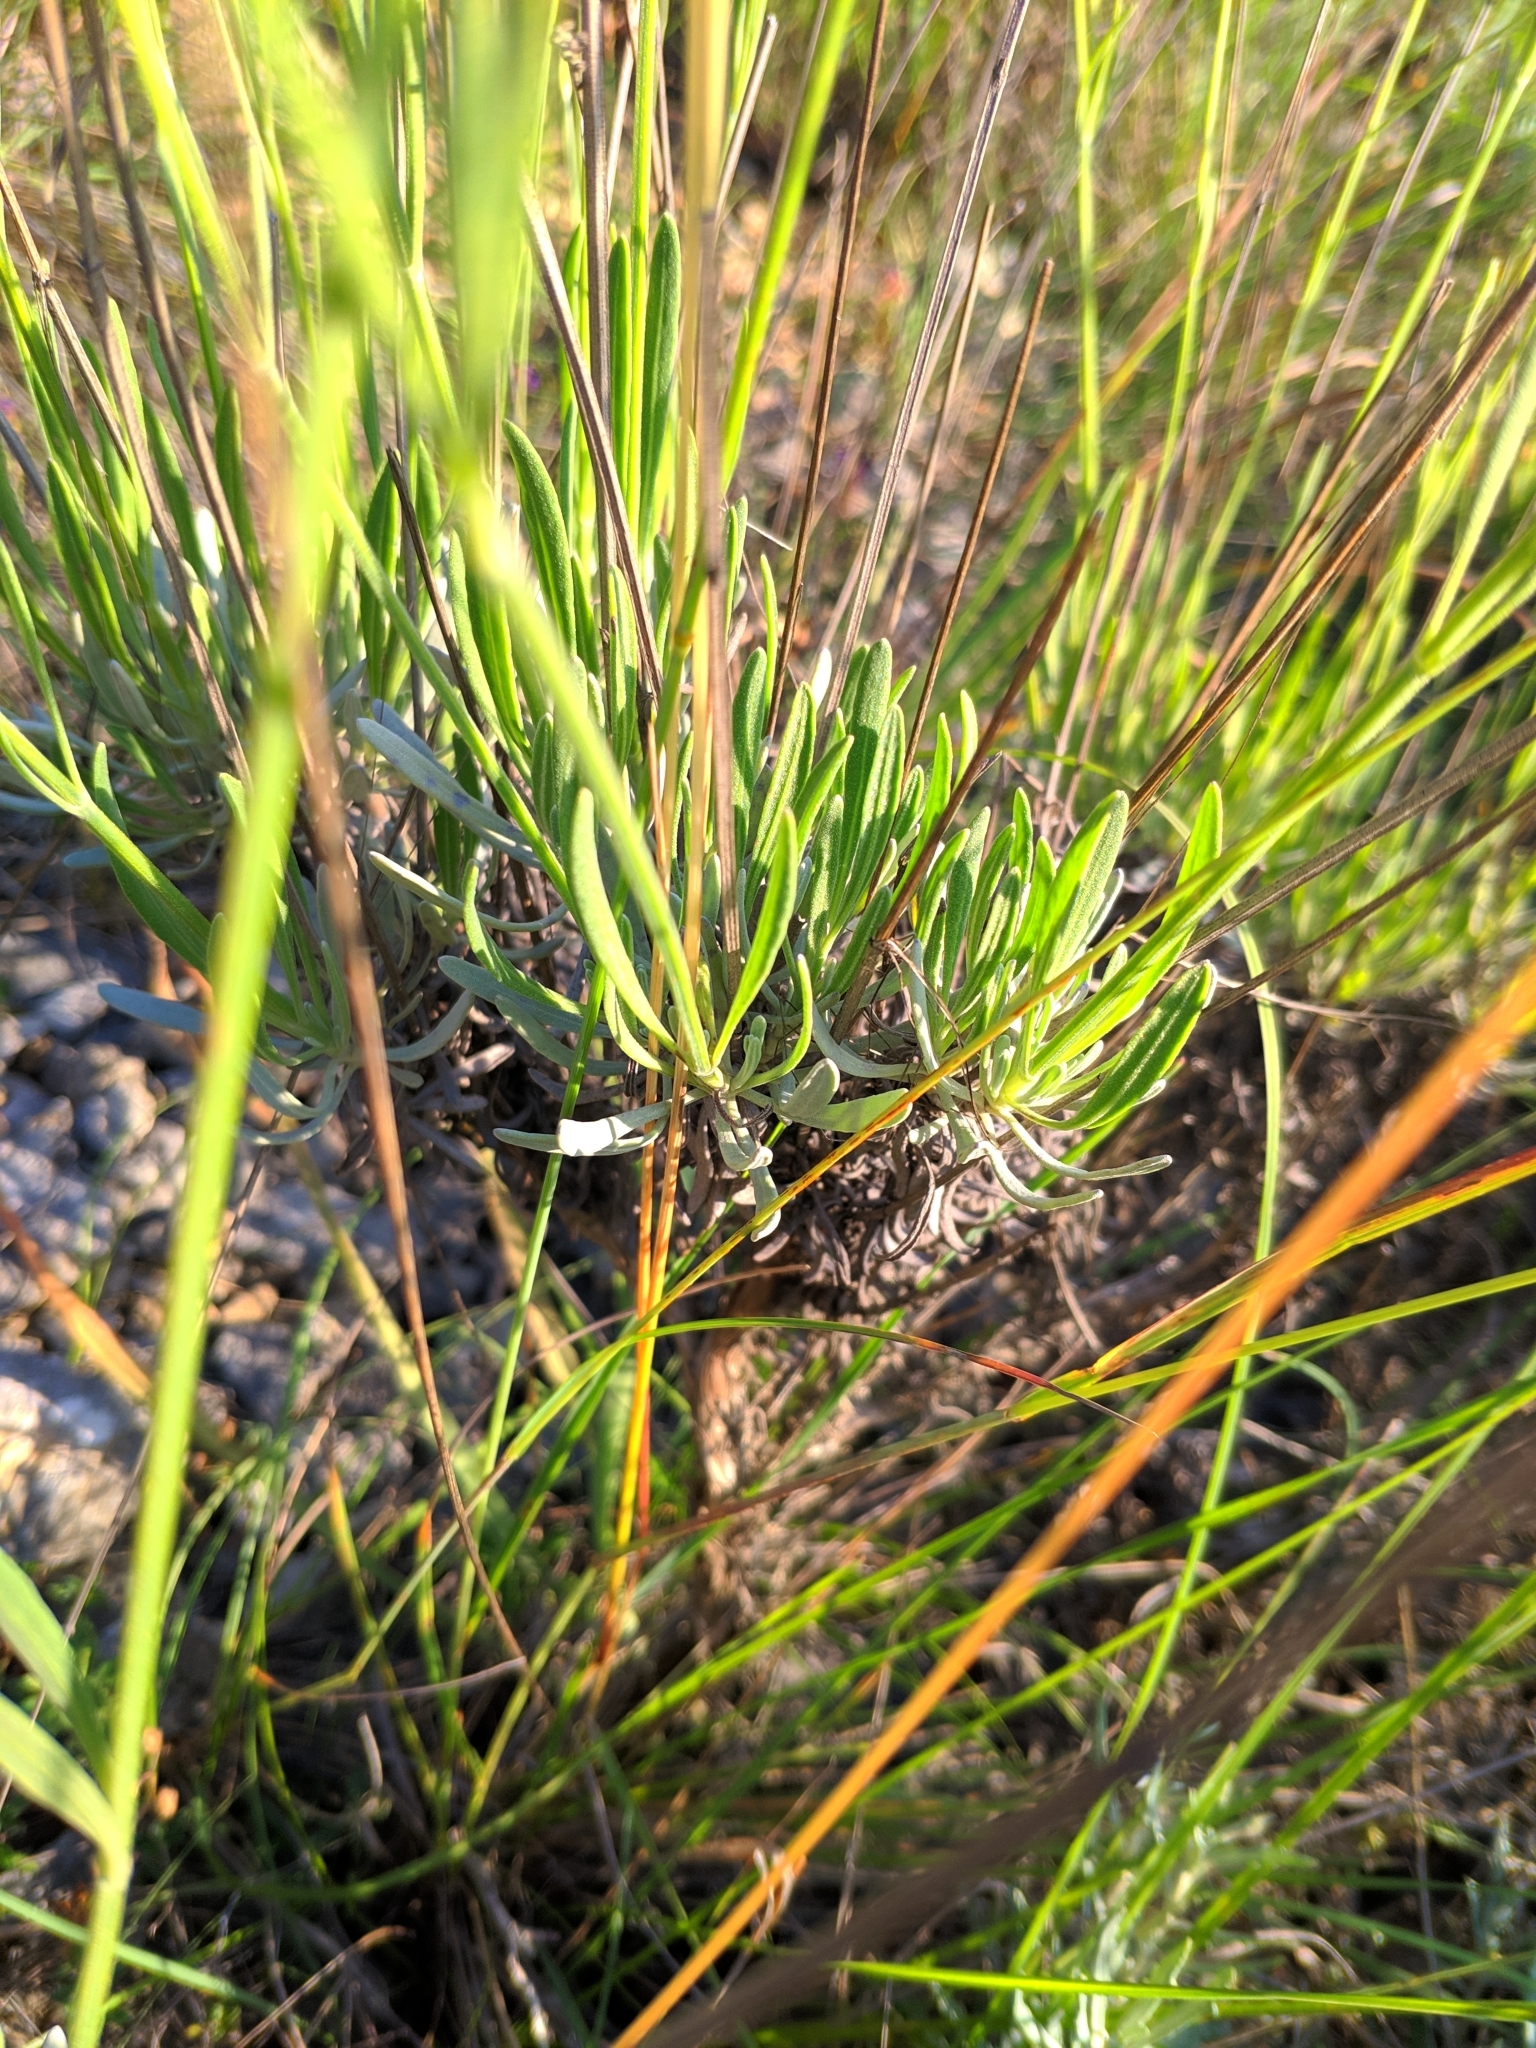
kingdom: Plantae
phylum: Tracheophyta
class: Magnoliopsida
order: Lamiales
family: Lamiaceae
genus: Lavandula
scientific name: Lavandula latifolia
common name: Spike lavendar
